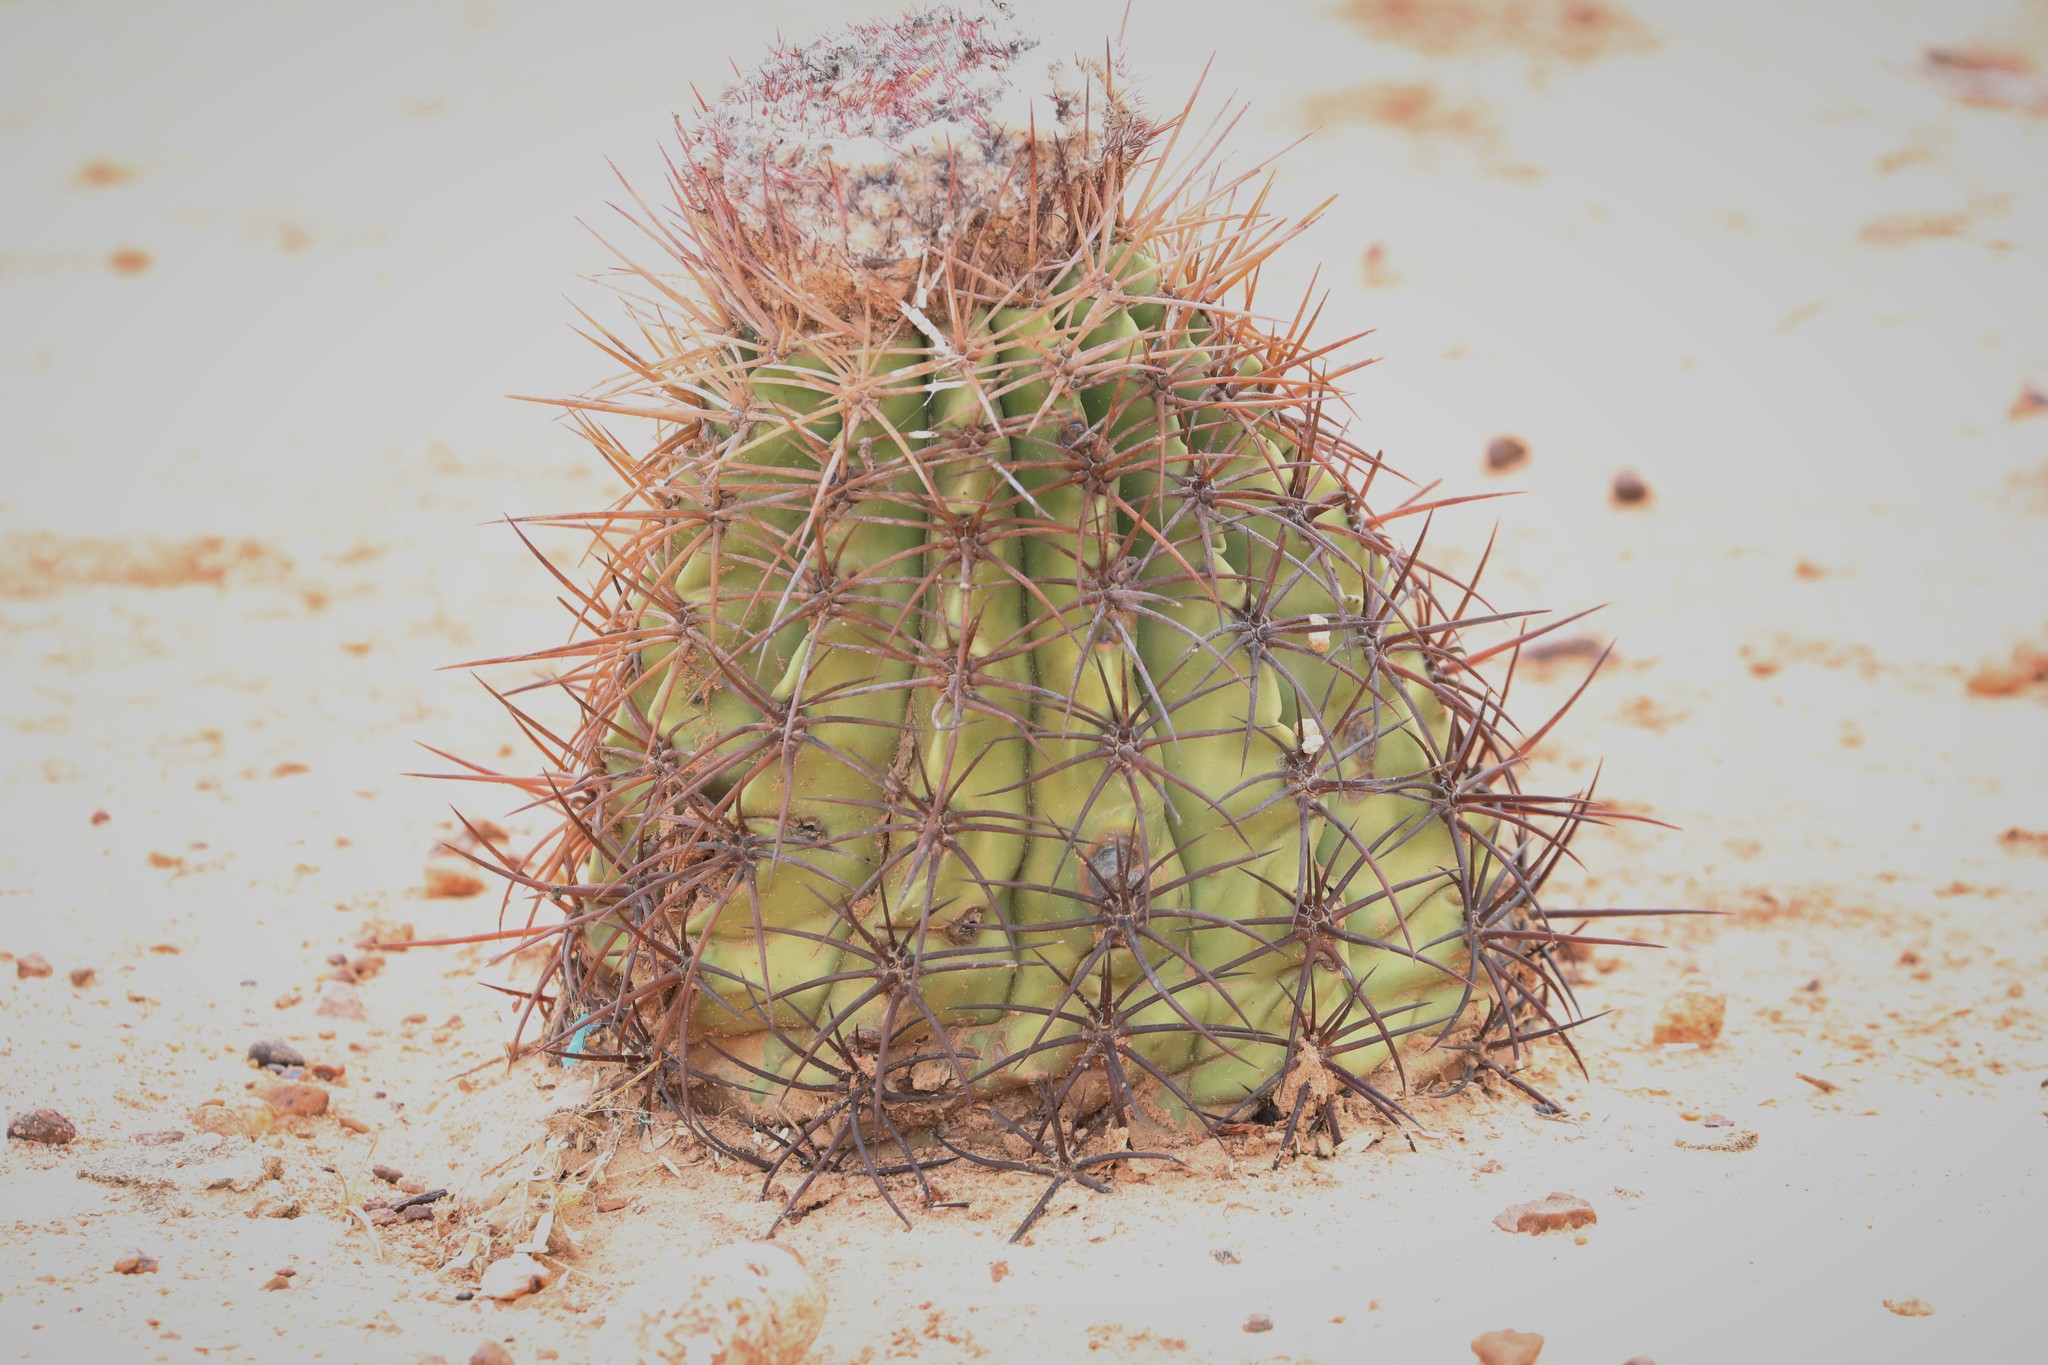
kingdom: Plantae
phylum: Tracheophyta
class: Magnoliopsida
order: Caryophyllales
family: Cactaceae
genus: Melocactus
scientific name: Melocactus curvispinus
